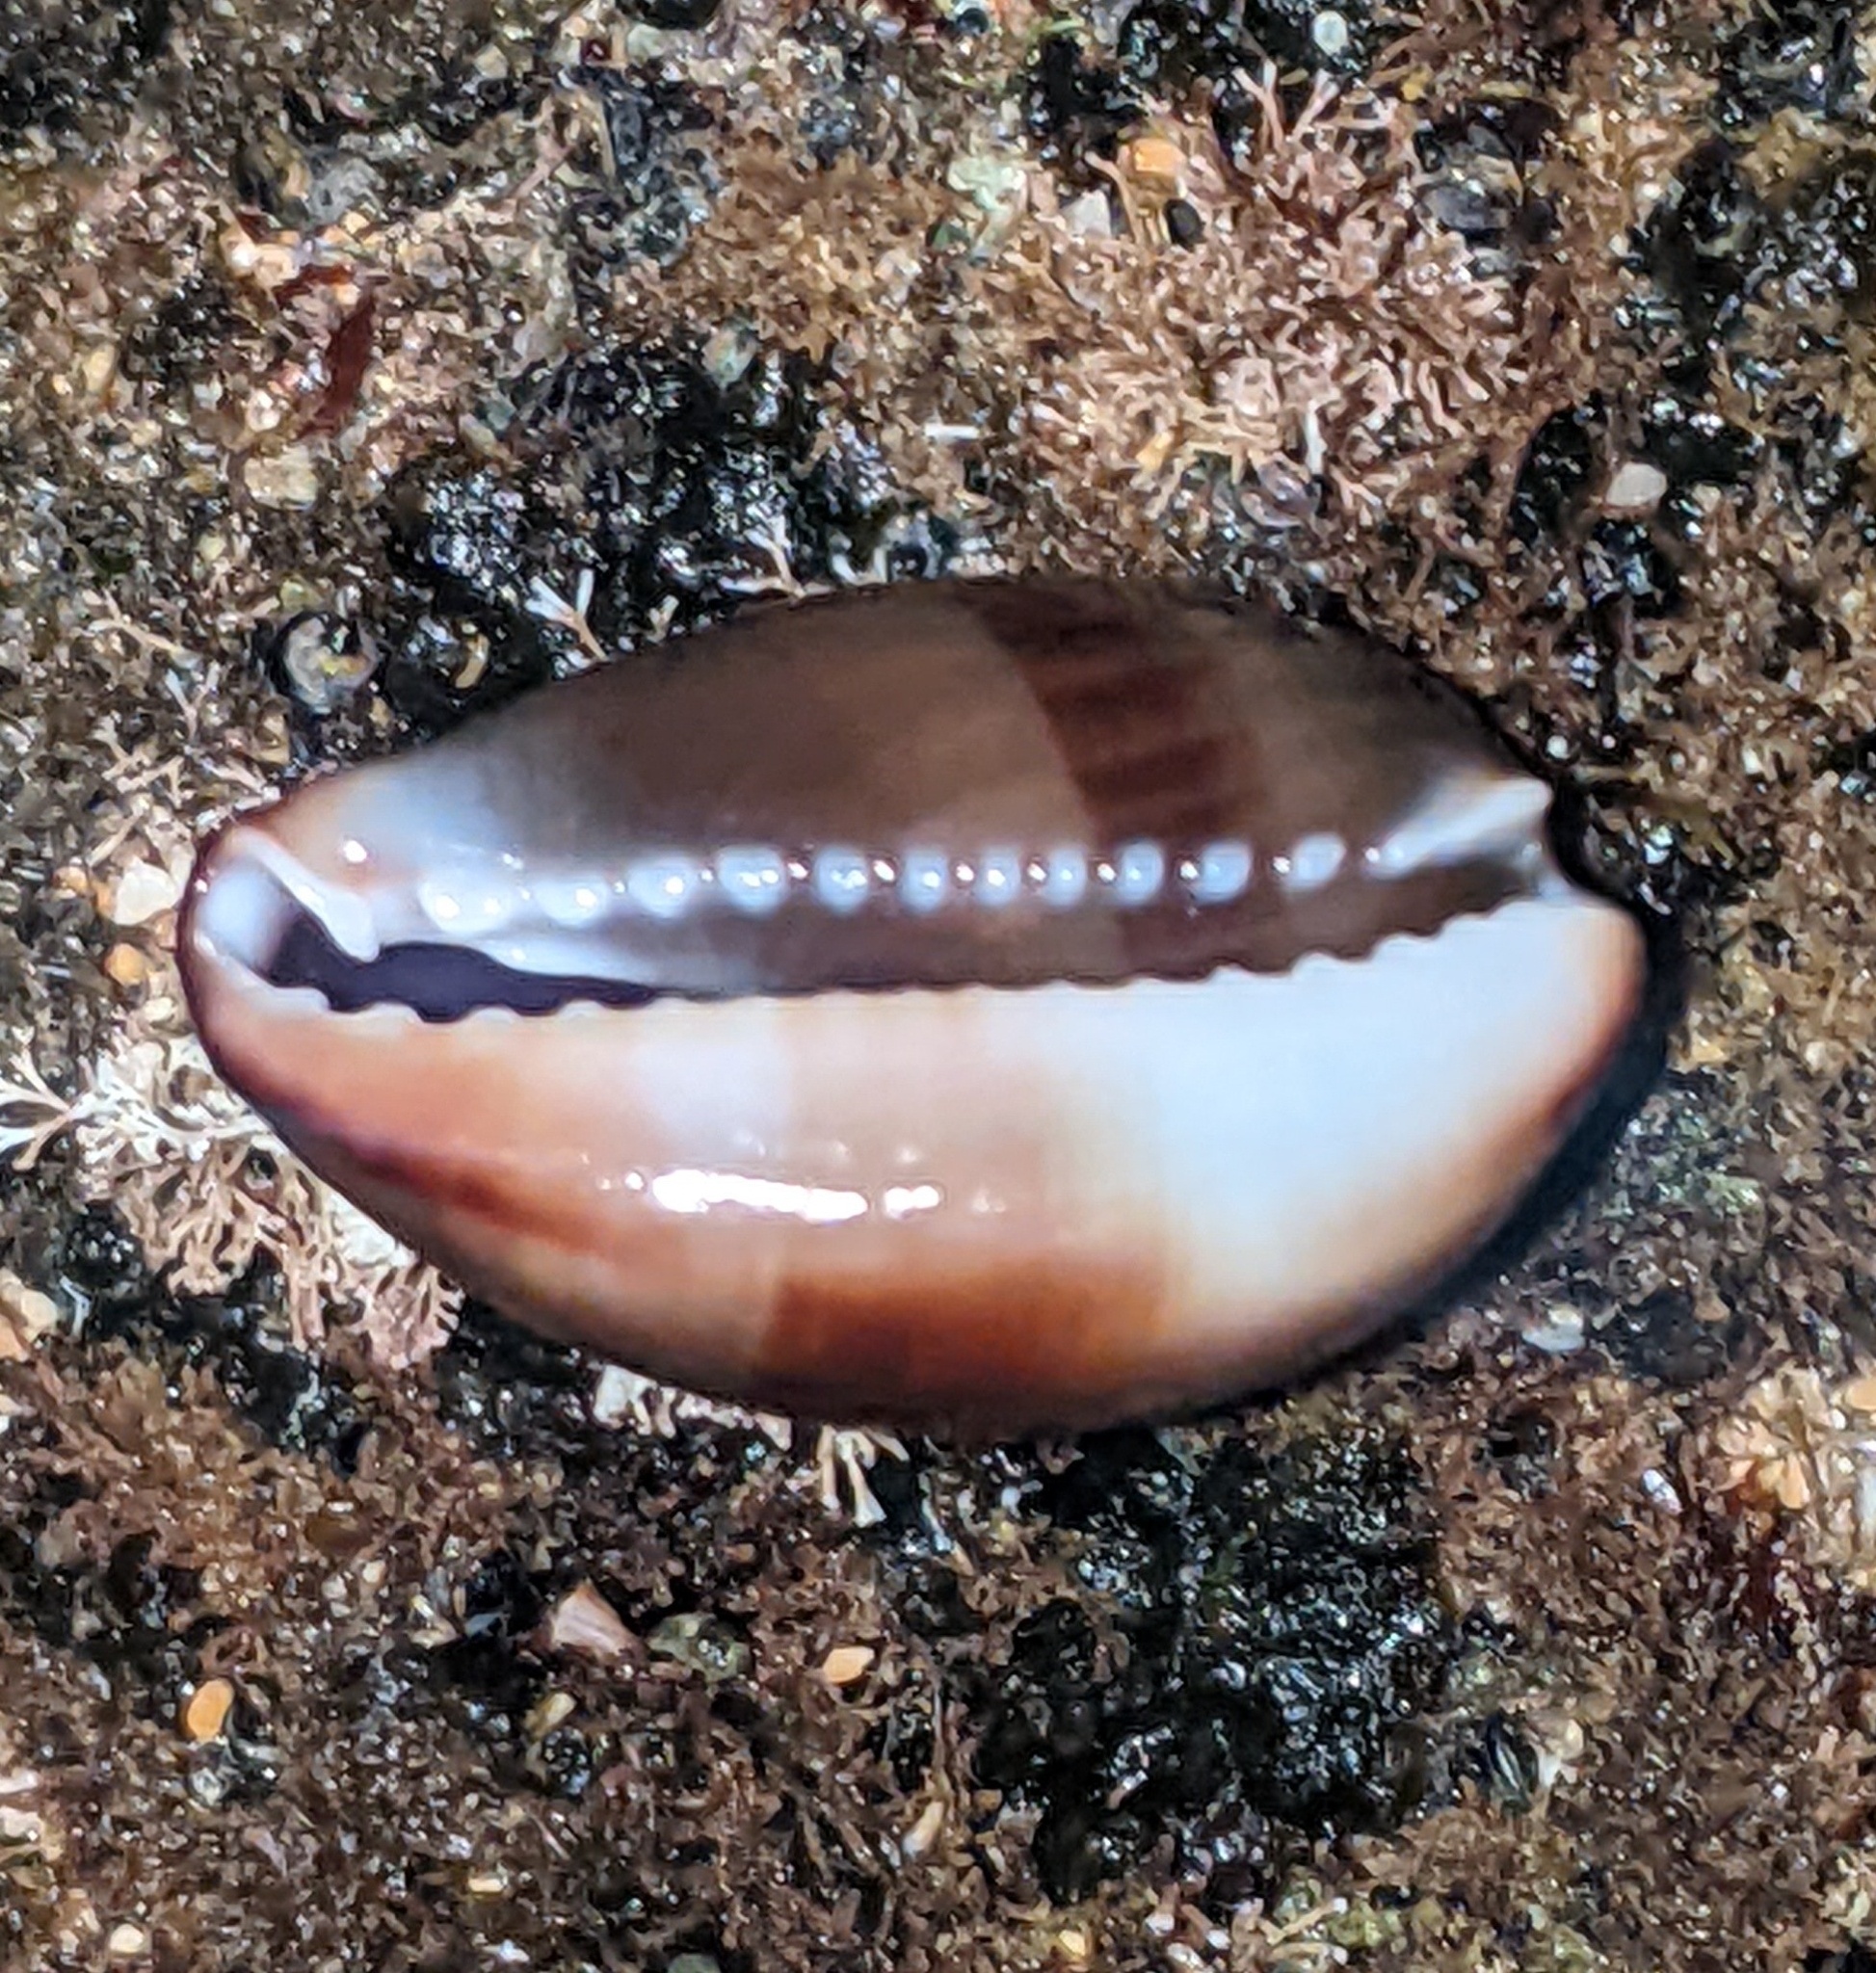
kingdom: Animalia
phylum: Mollusca
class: Gastropoda
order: Littorinimorpha
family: Cypraeidae
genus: Monetaria
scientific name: Monetaria caputophidii
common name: Snake's head cowry
